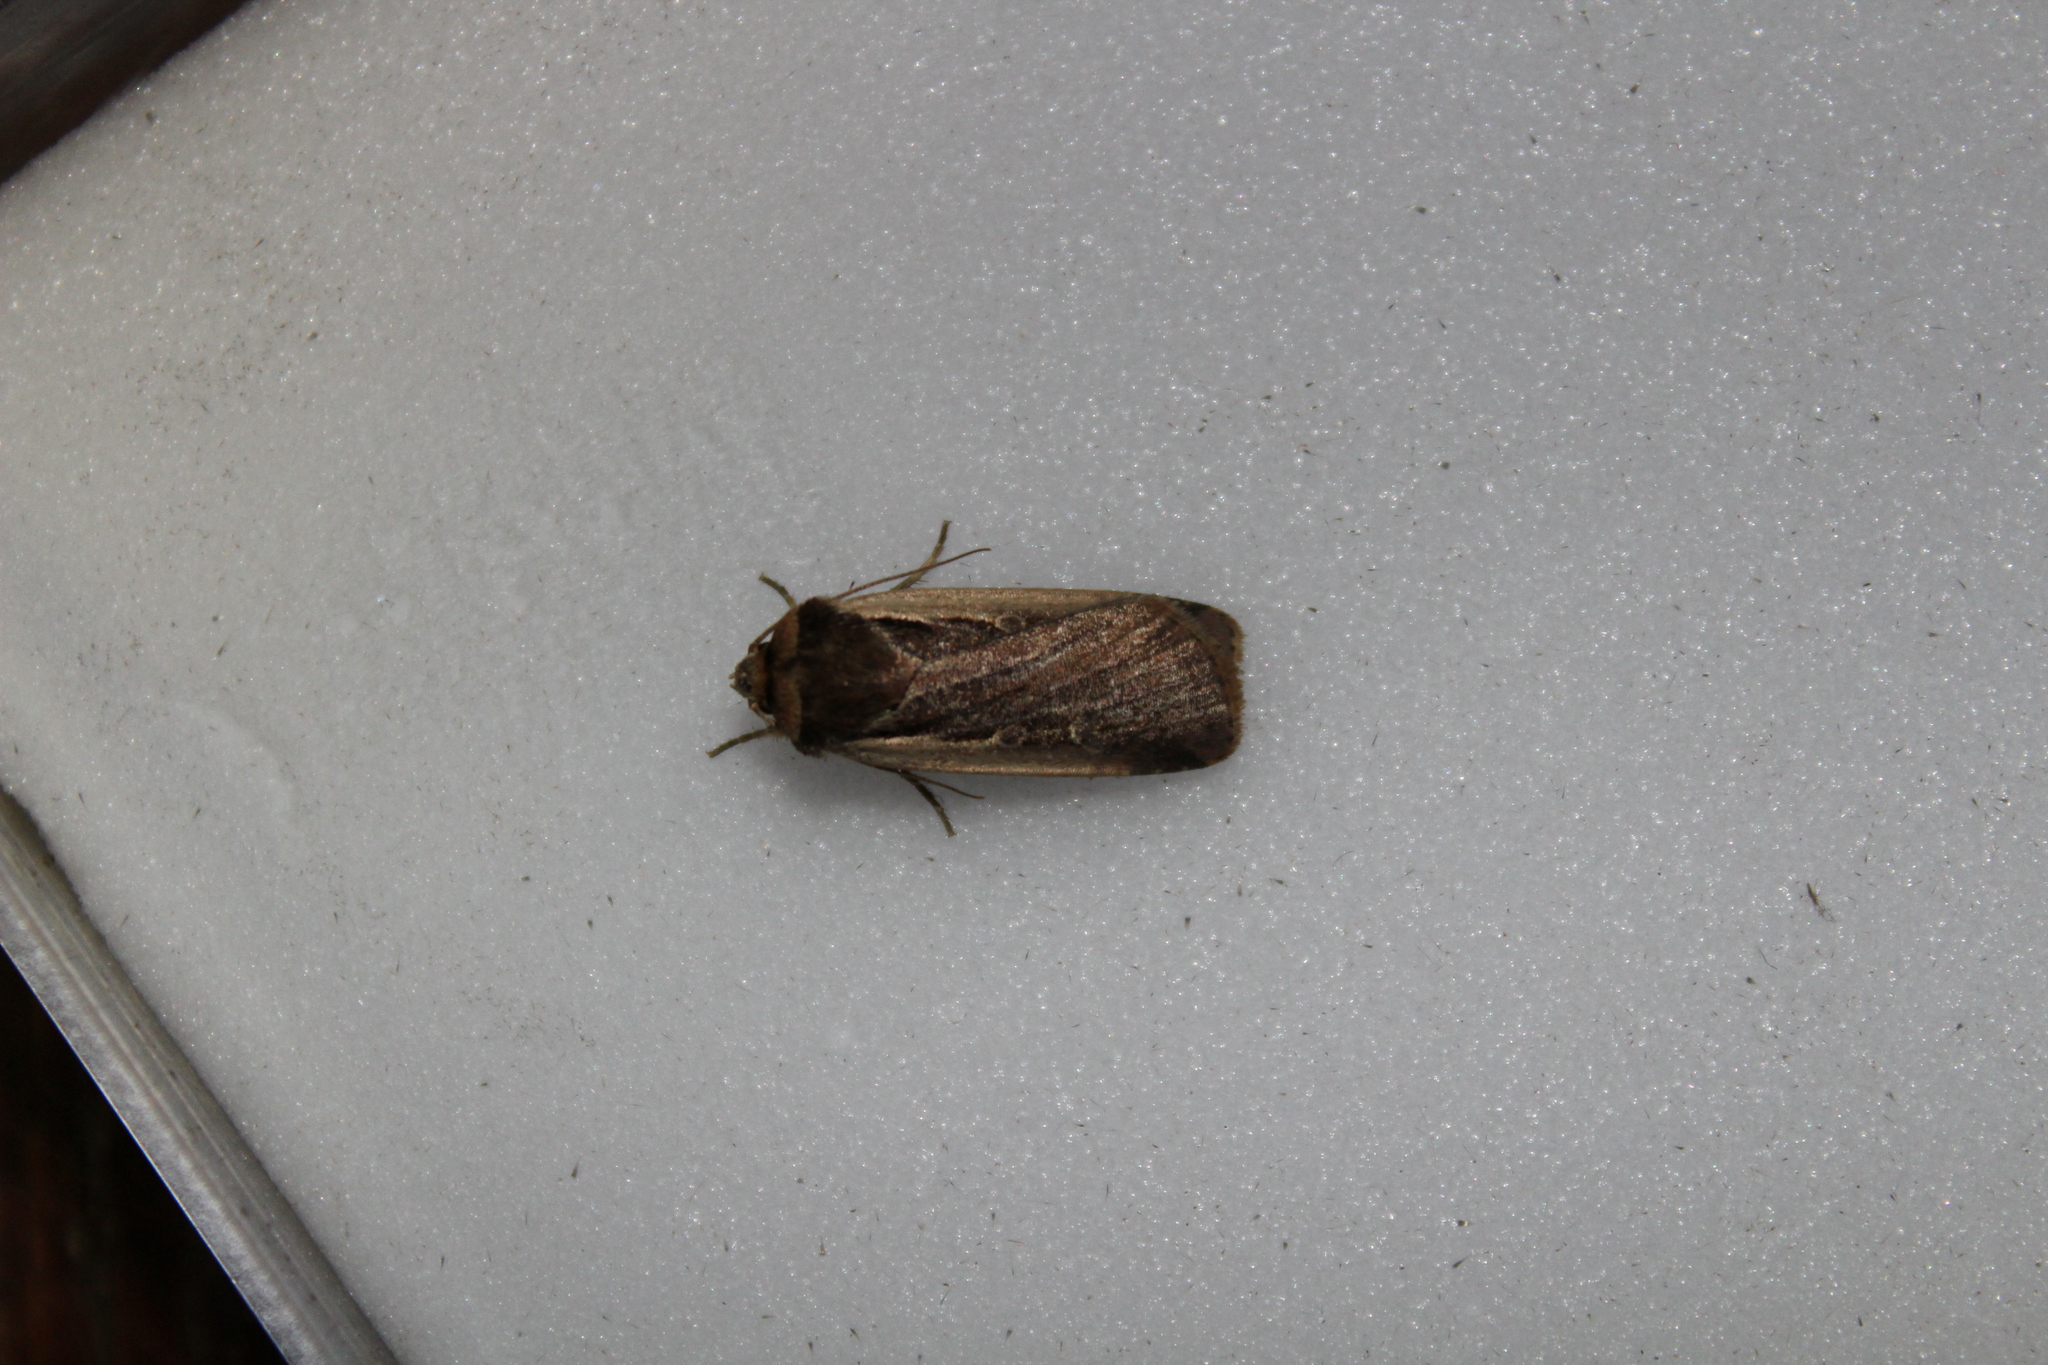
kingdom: Animalia
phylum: Arthropoda
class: Insecta
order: Lepidoptera
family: Noctuidae
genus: Ochropleura
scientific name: Ochropleura plecta
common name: Flame shoulder
